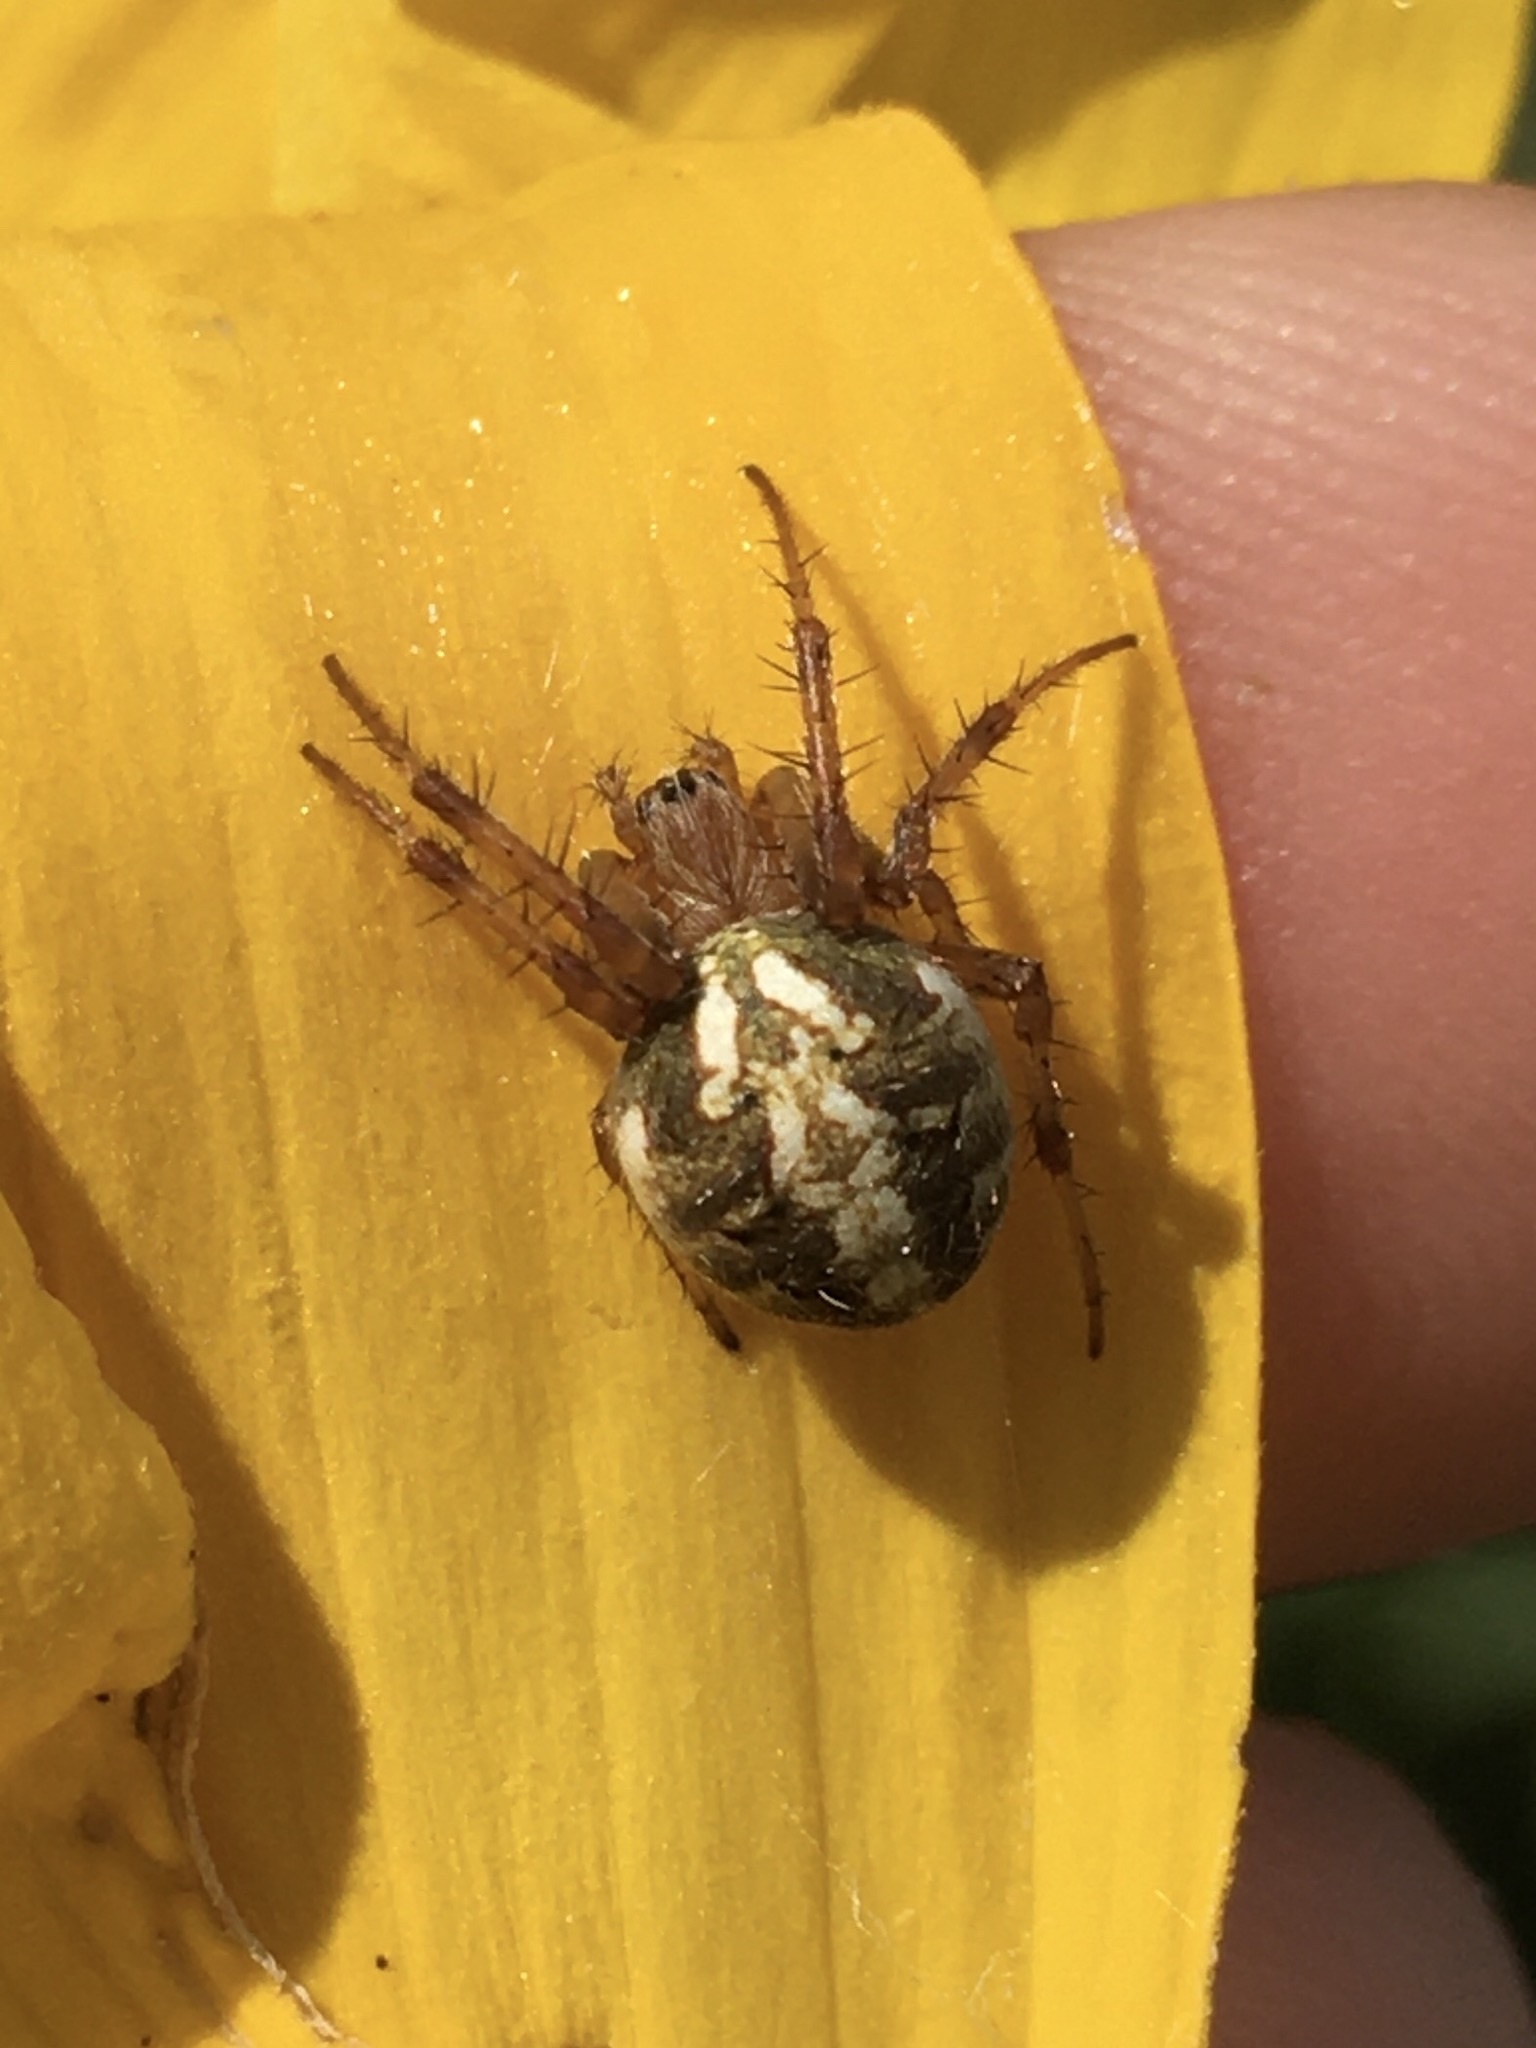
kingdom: Animalia
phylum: Arthropoda
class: Arachnida
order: Araneae
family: Araneidae
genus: Neoscona
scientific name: Neoscona arabesca
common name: Orb weavers
